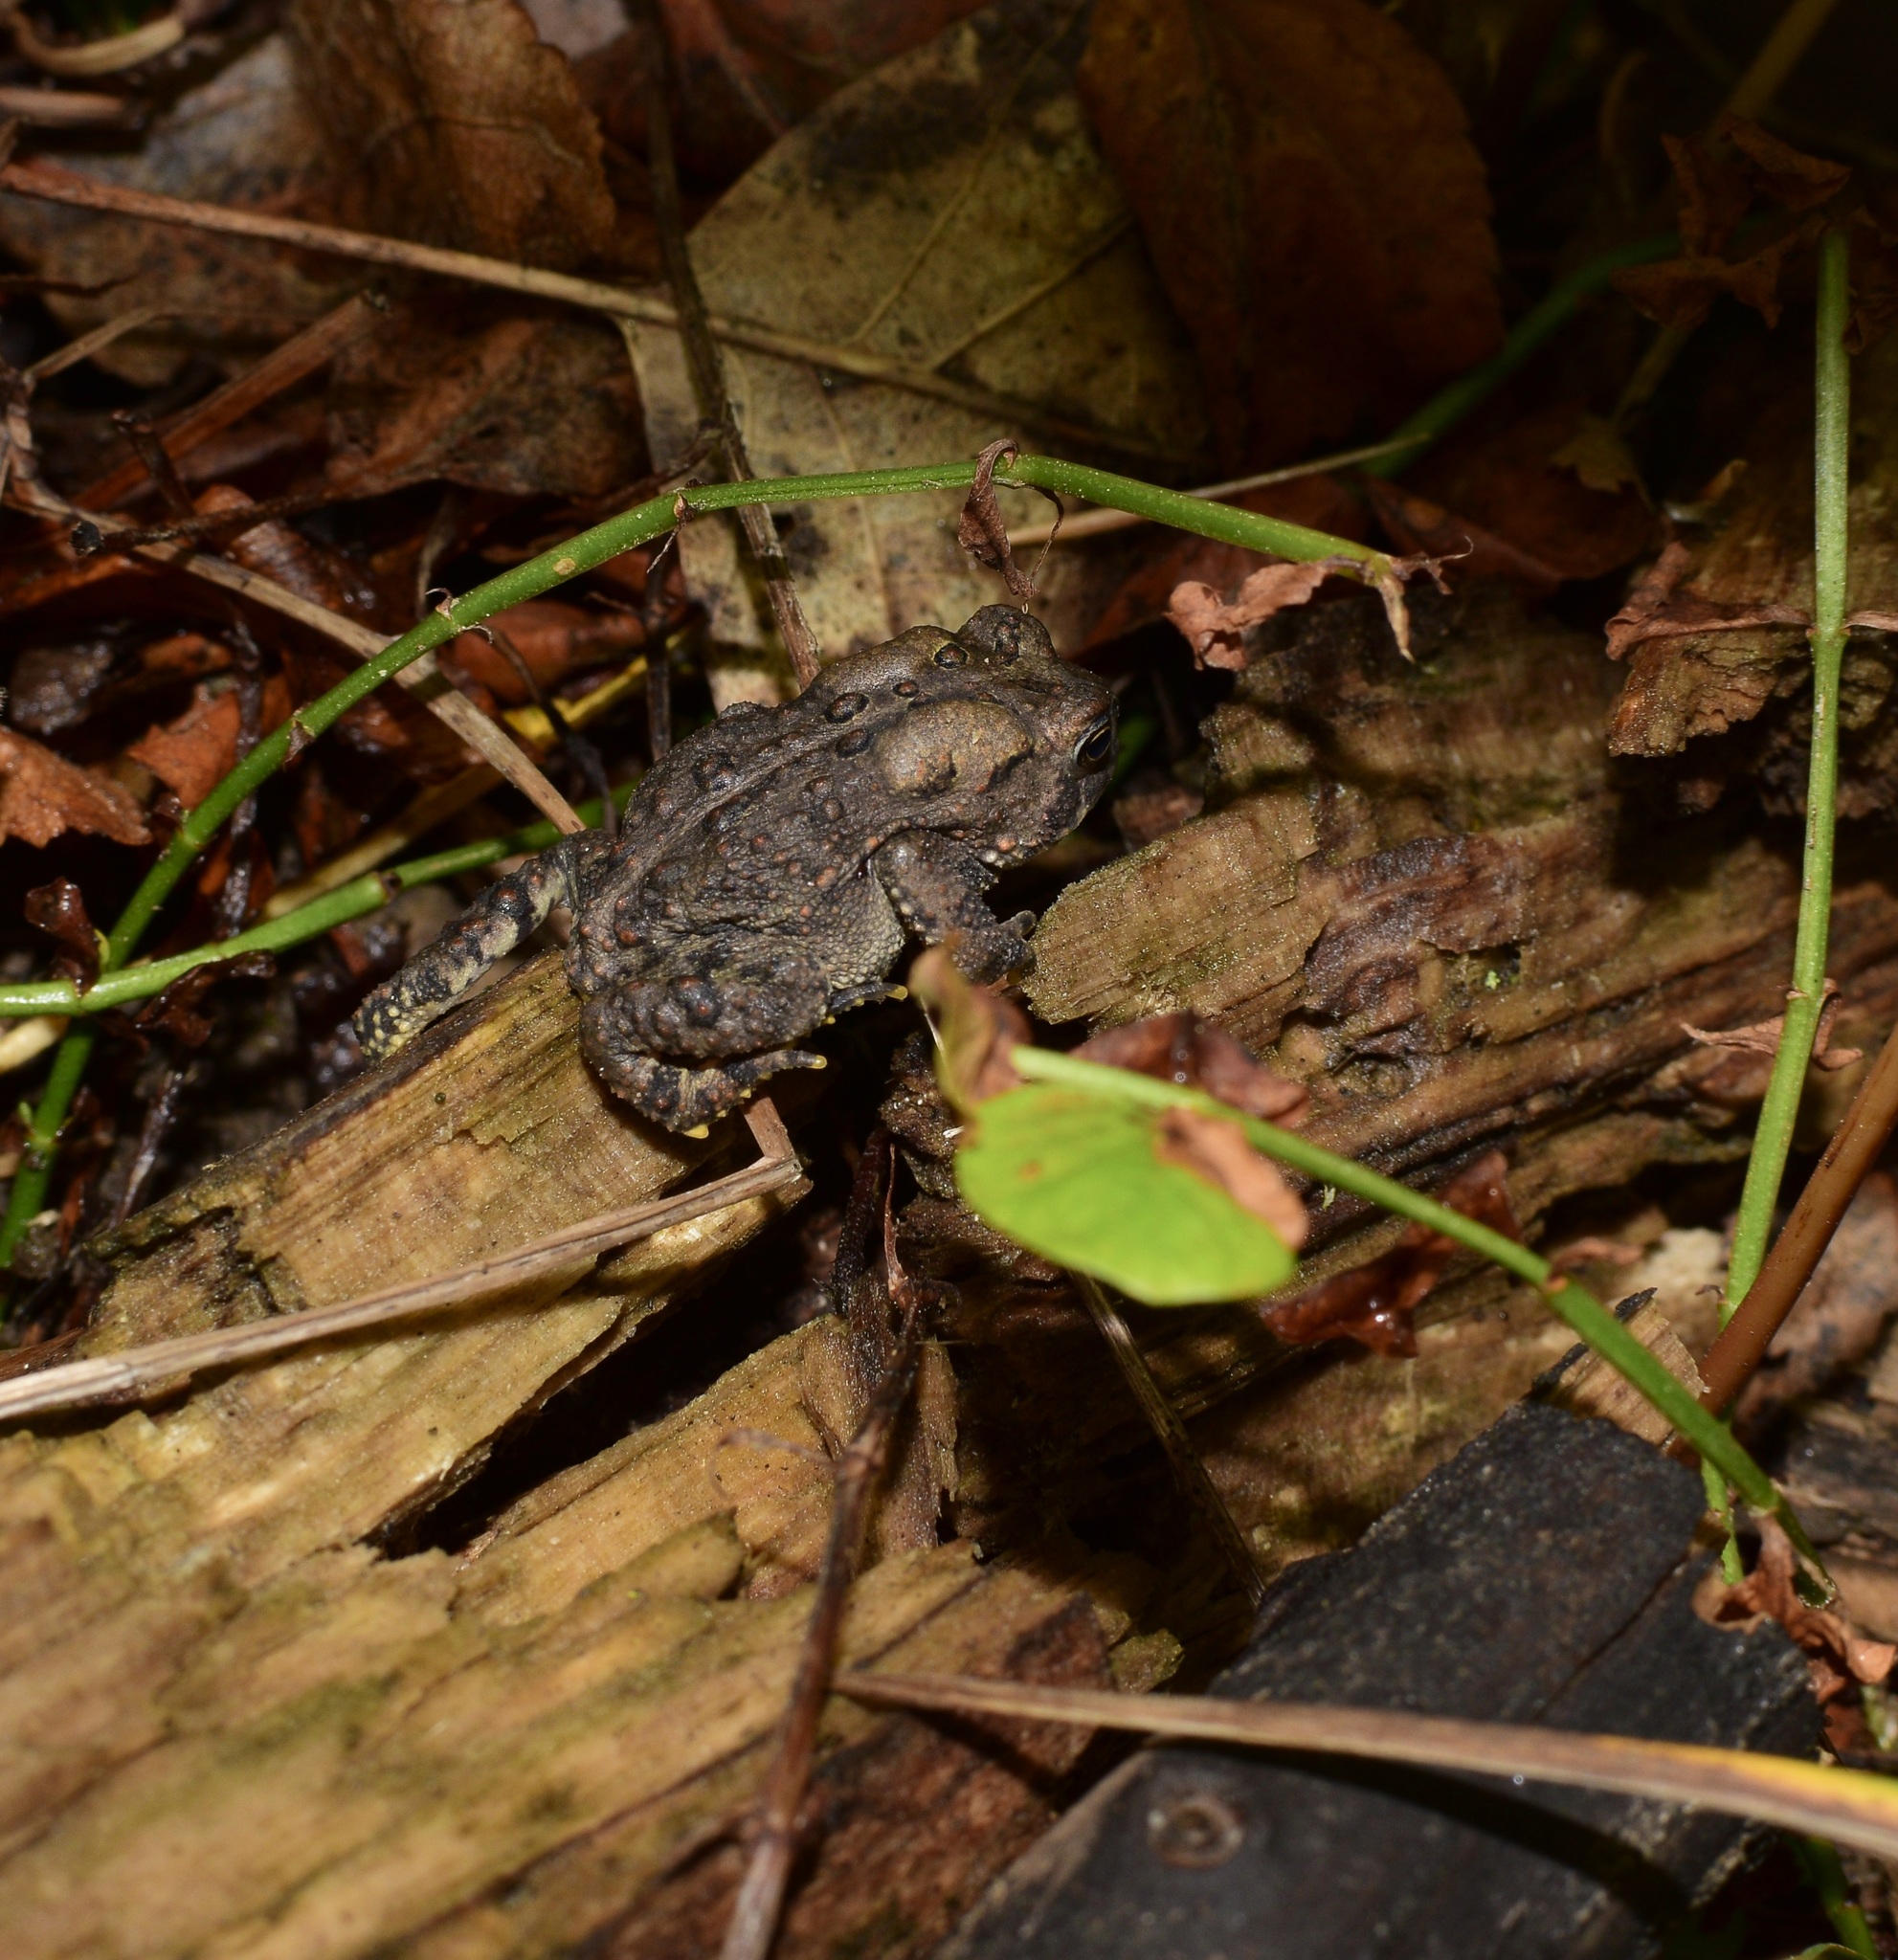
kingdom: Animalia
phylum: Chordata
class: Amphibia
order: Anura
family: Bufonidae
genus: Anaxyrus
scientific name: Anaxyrus americanus
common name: American toad
